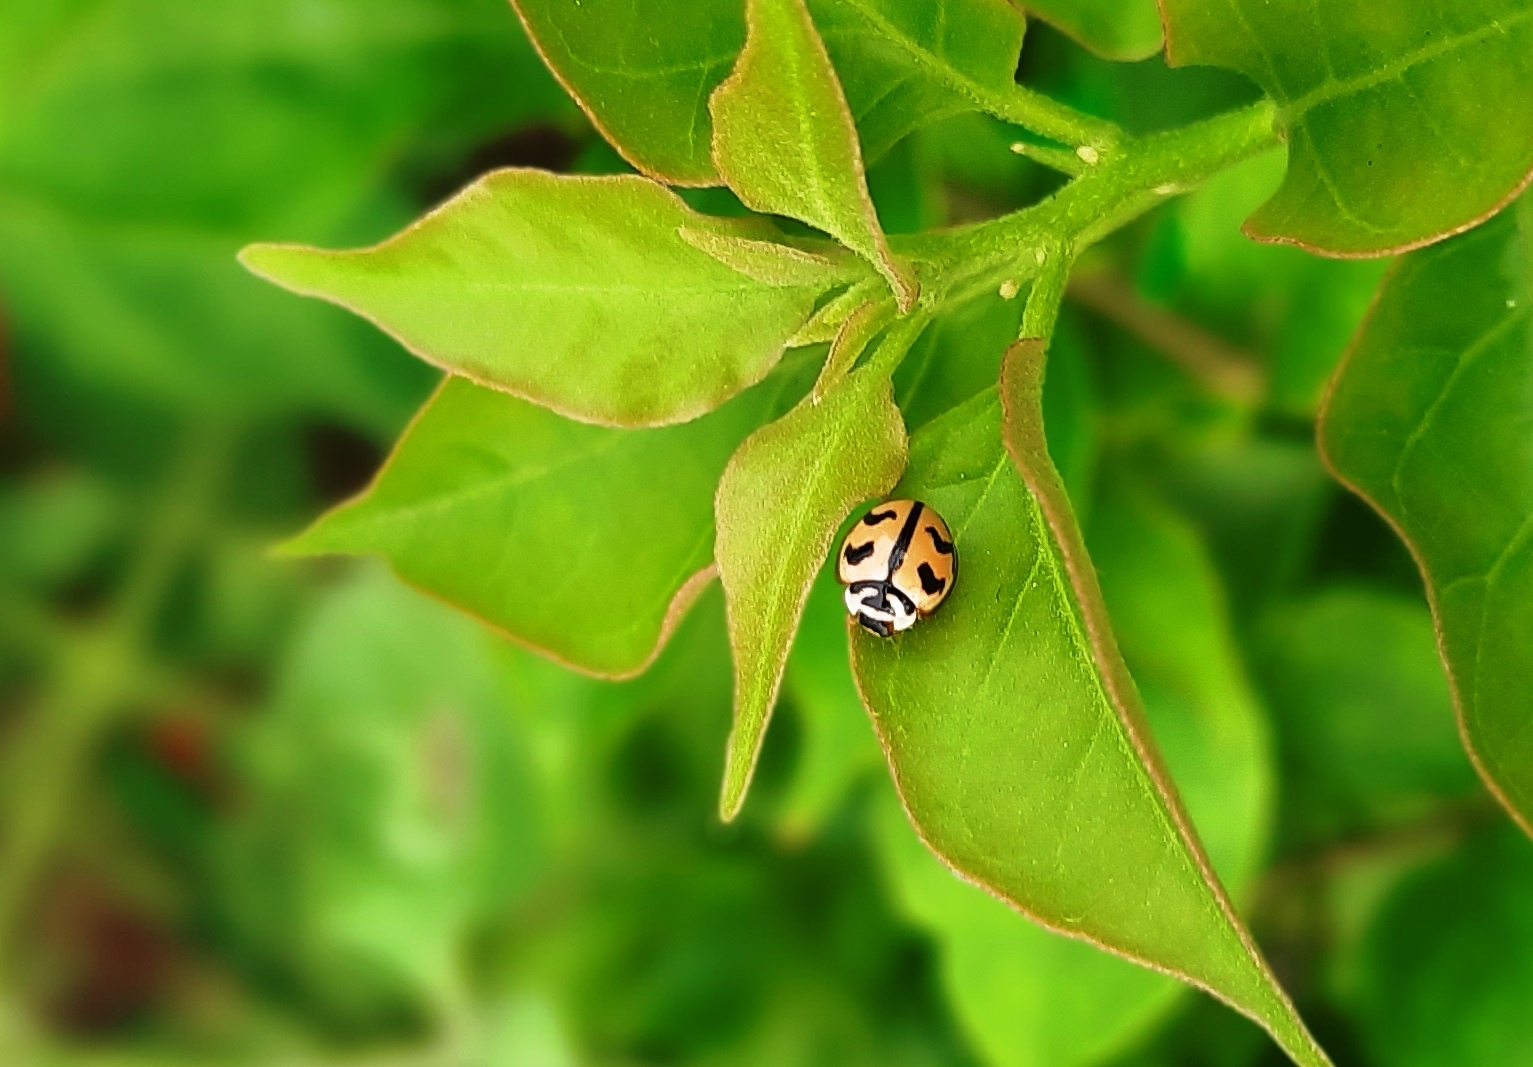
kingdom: Animalia
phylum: Arthropoda
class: Insecta
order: Coleoptera
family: Coccinellidae
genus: Cheilomenes
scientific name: Cheilomenes sexmaculata
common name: Ladybird beetle
